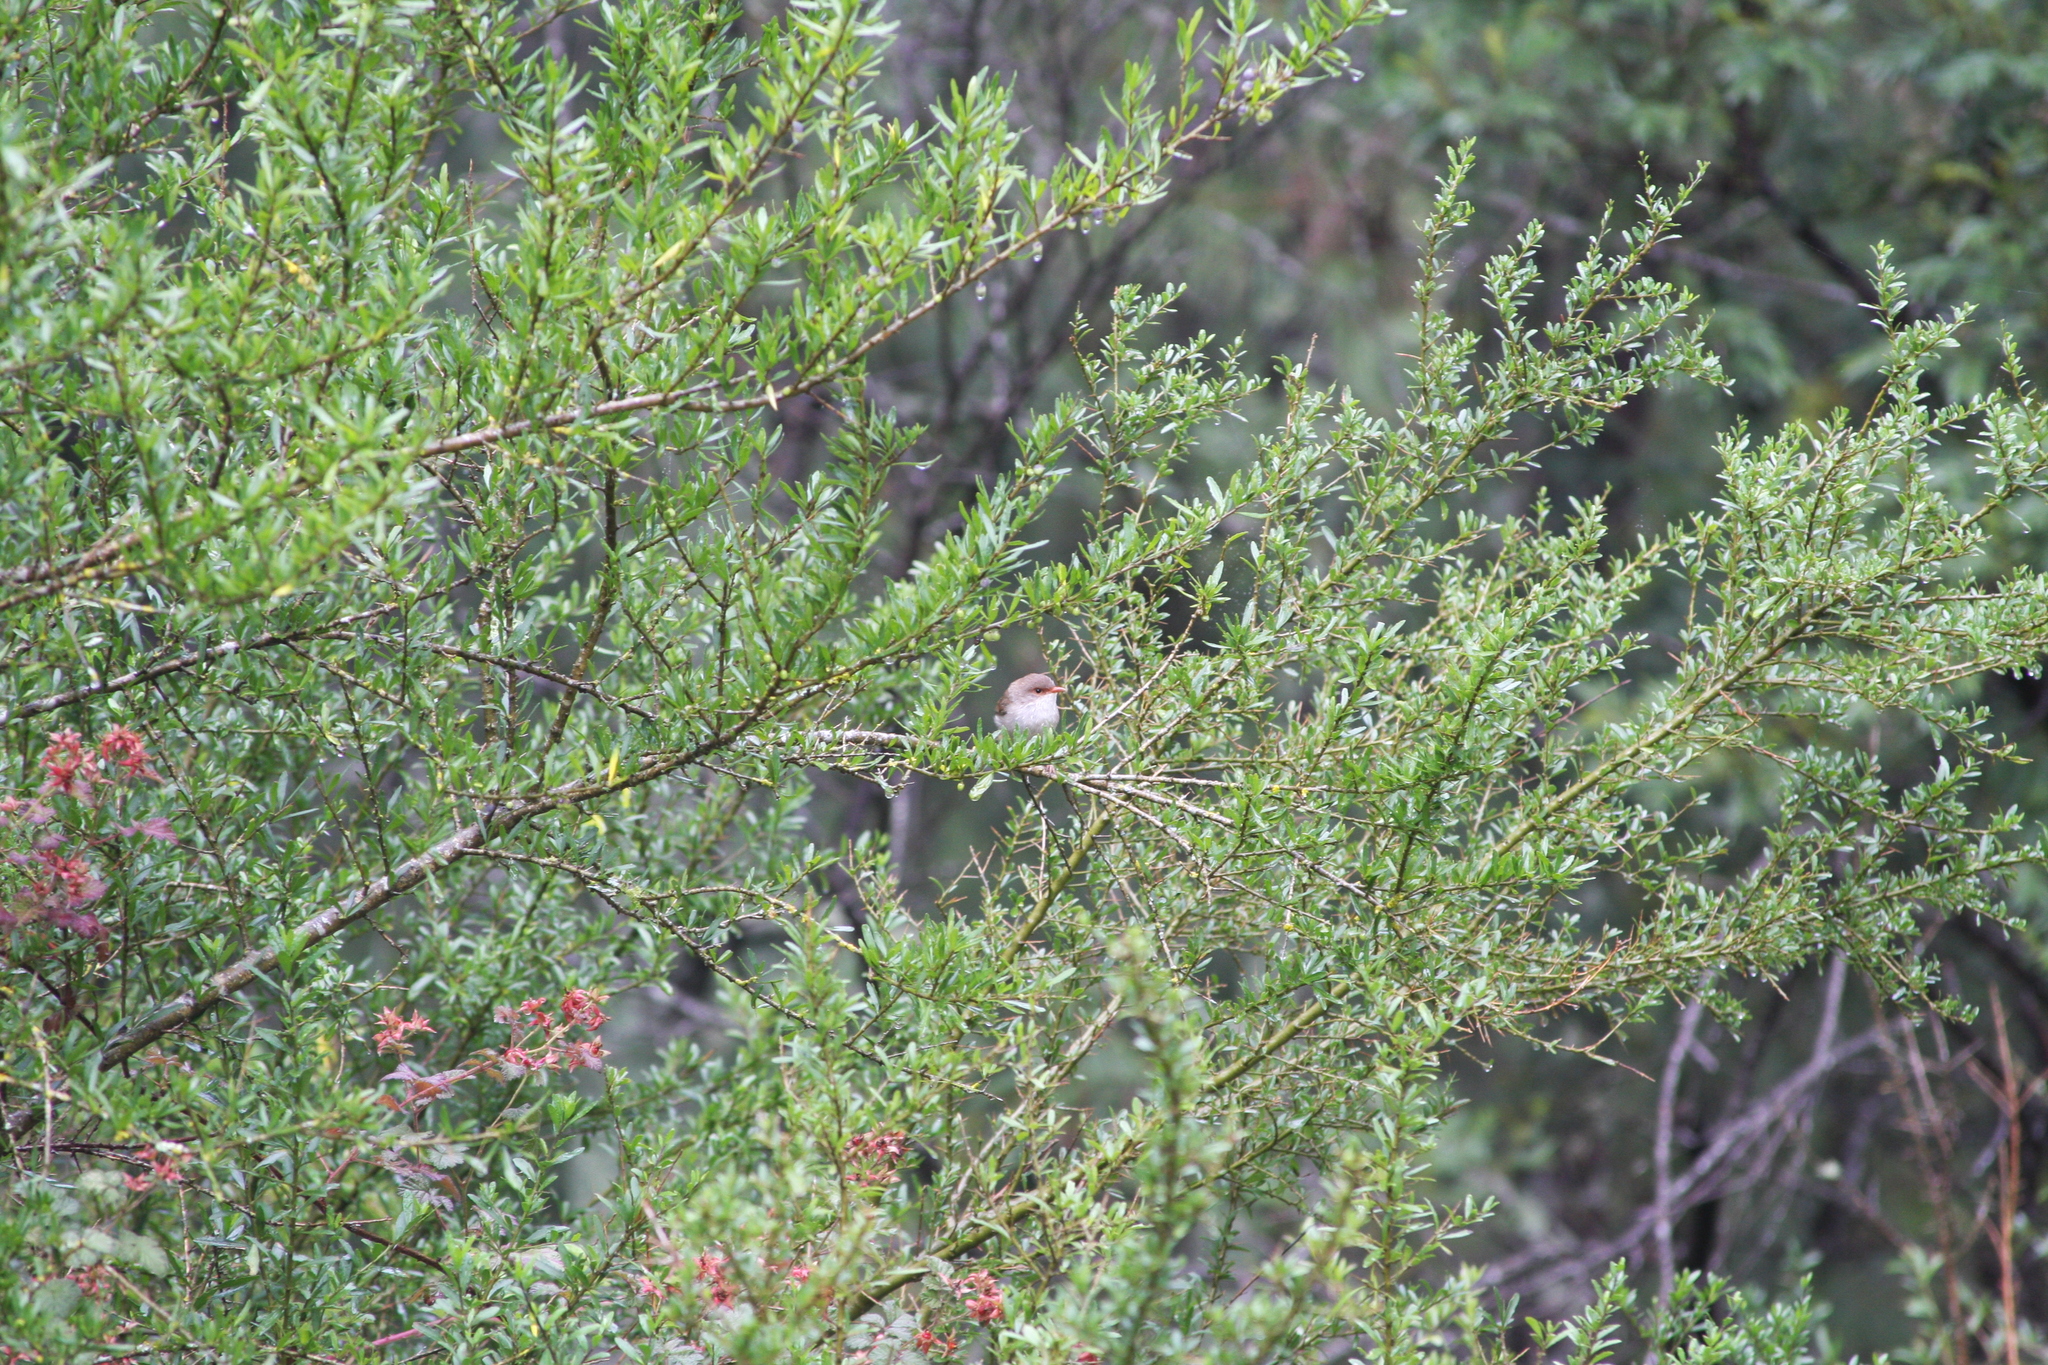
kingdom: Animalia
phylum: Chordata
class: Aves
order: Passeriformes
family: Maluridae
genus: Malurus
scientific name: Malurus cyaneus
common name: Superb fairywren
